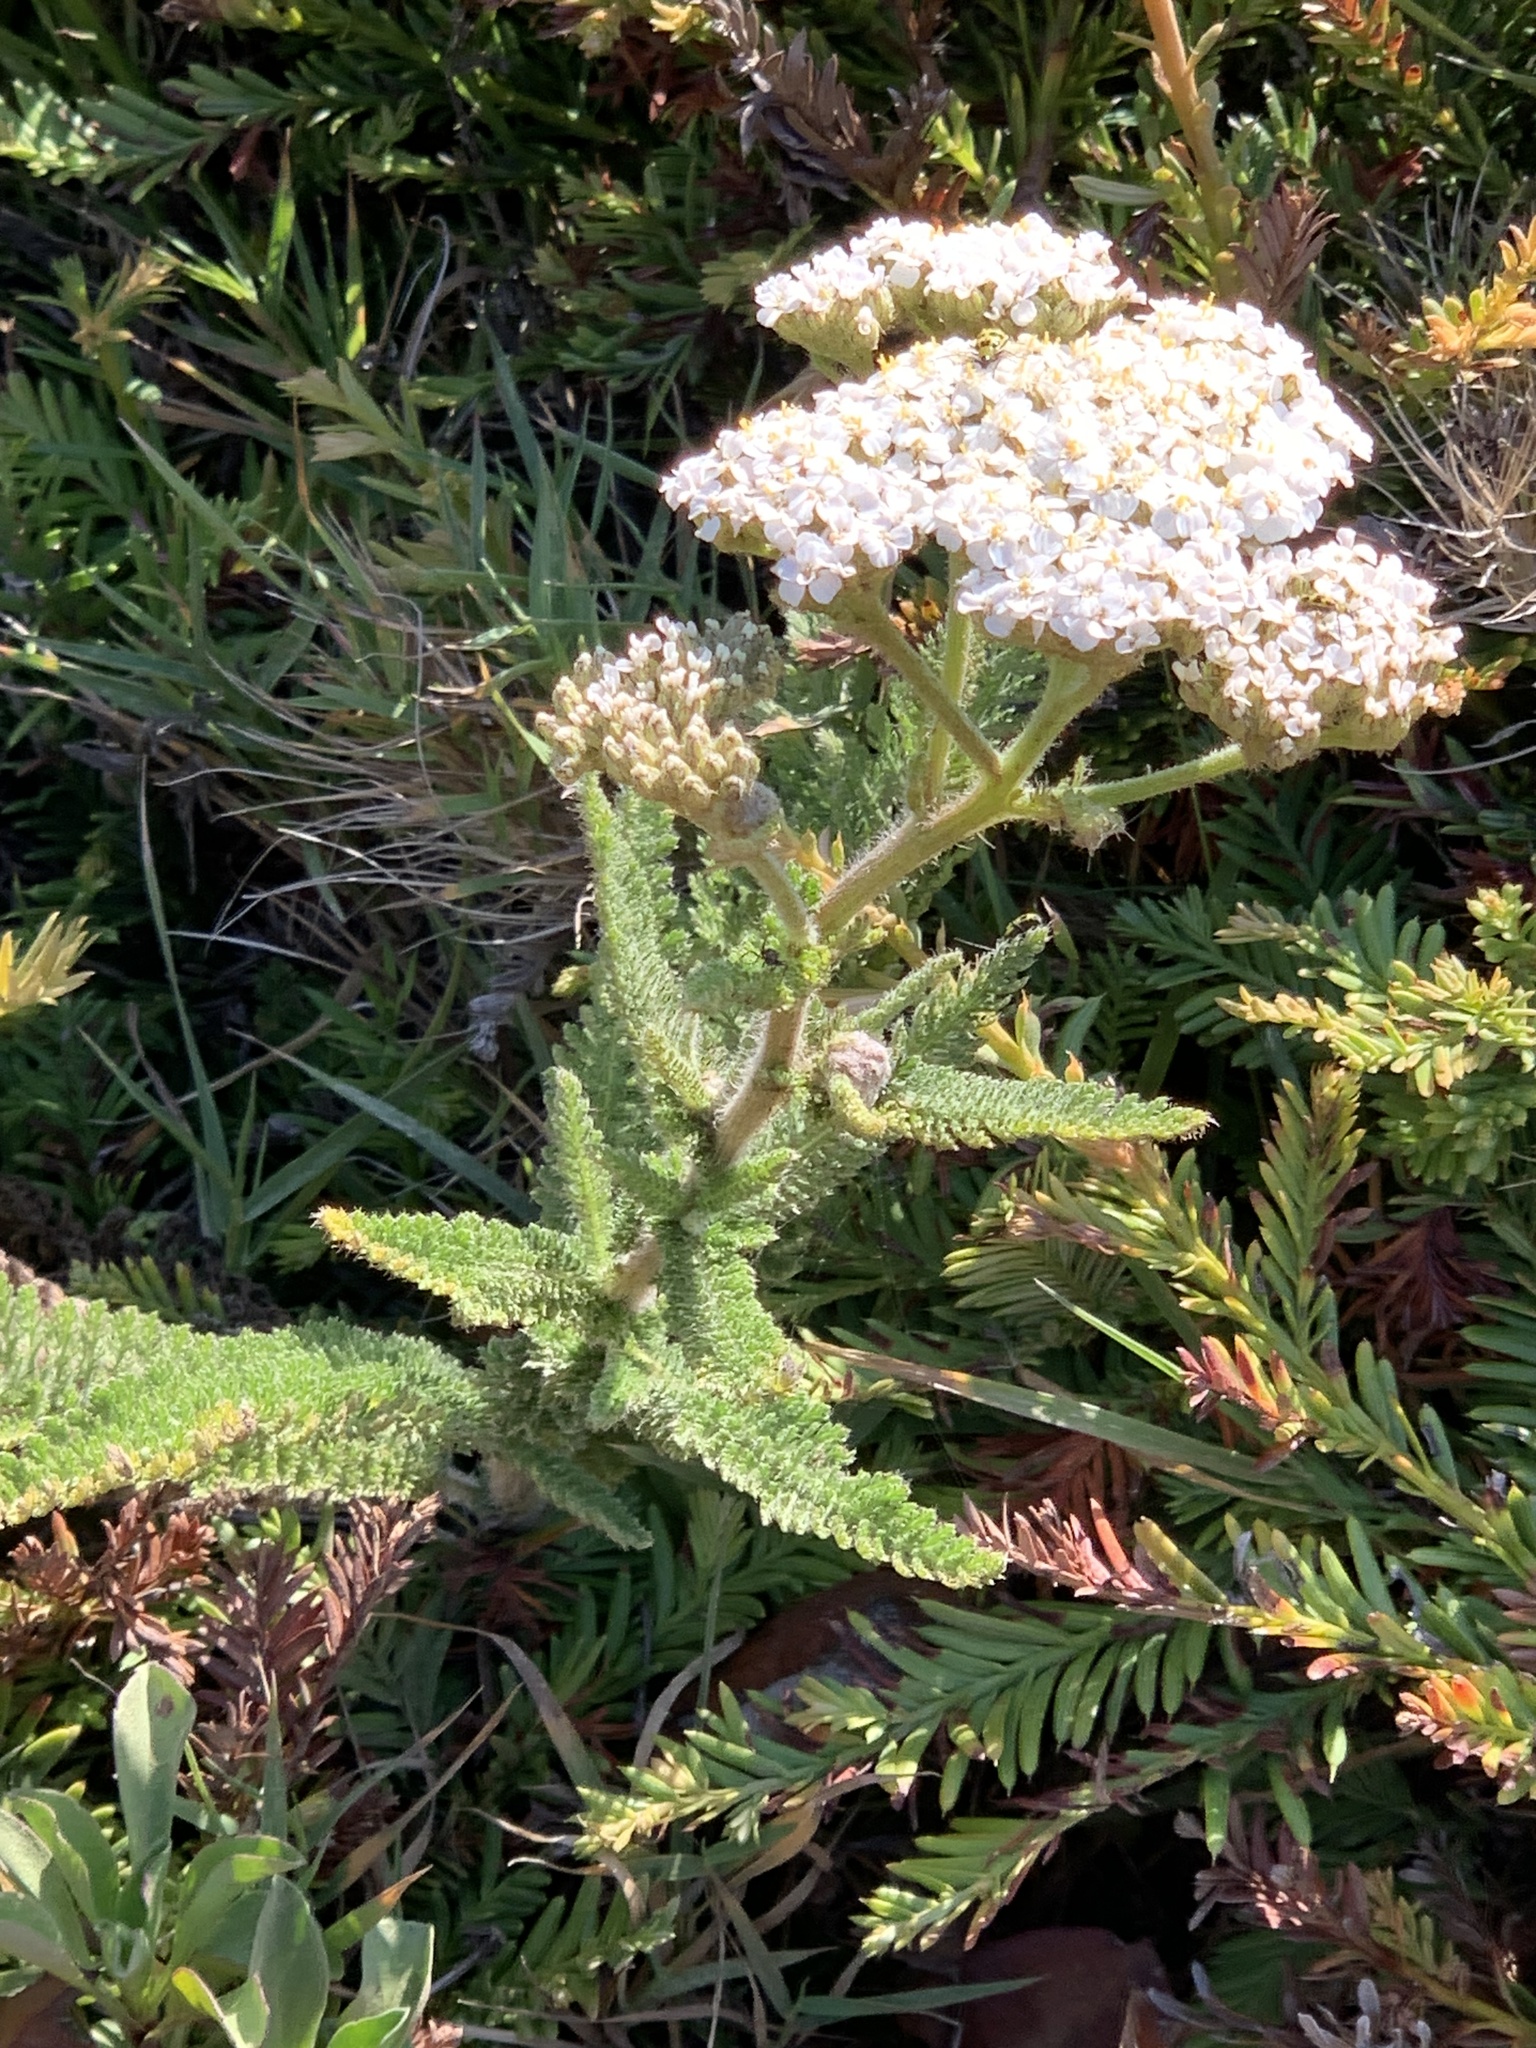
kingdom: Plantae
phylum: Tracheophyta
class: Magnoliopsida
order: Asterales
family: Asteraceae
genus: Achillea
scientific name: Achillea millefolium
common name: Yarrow
